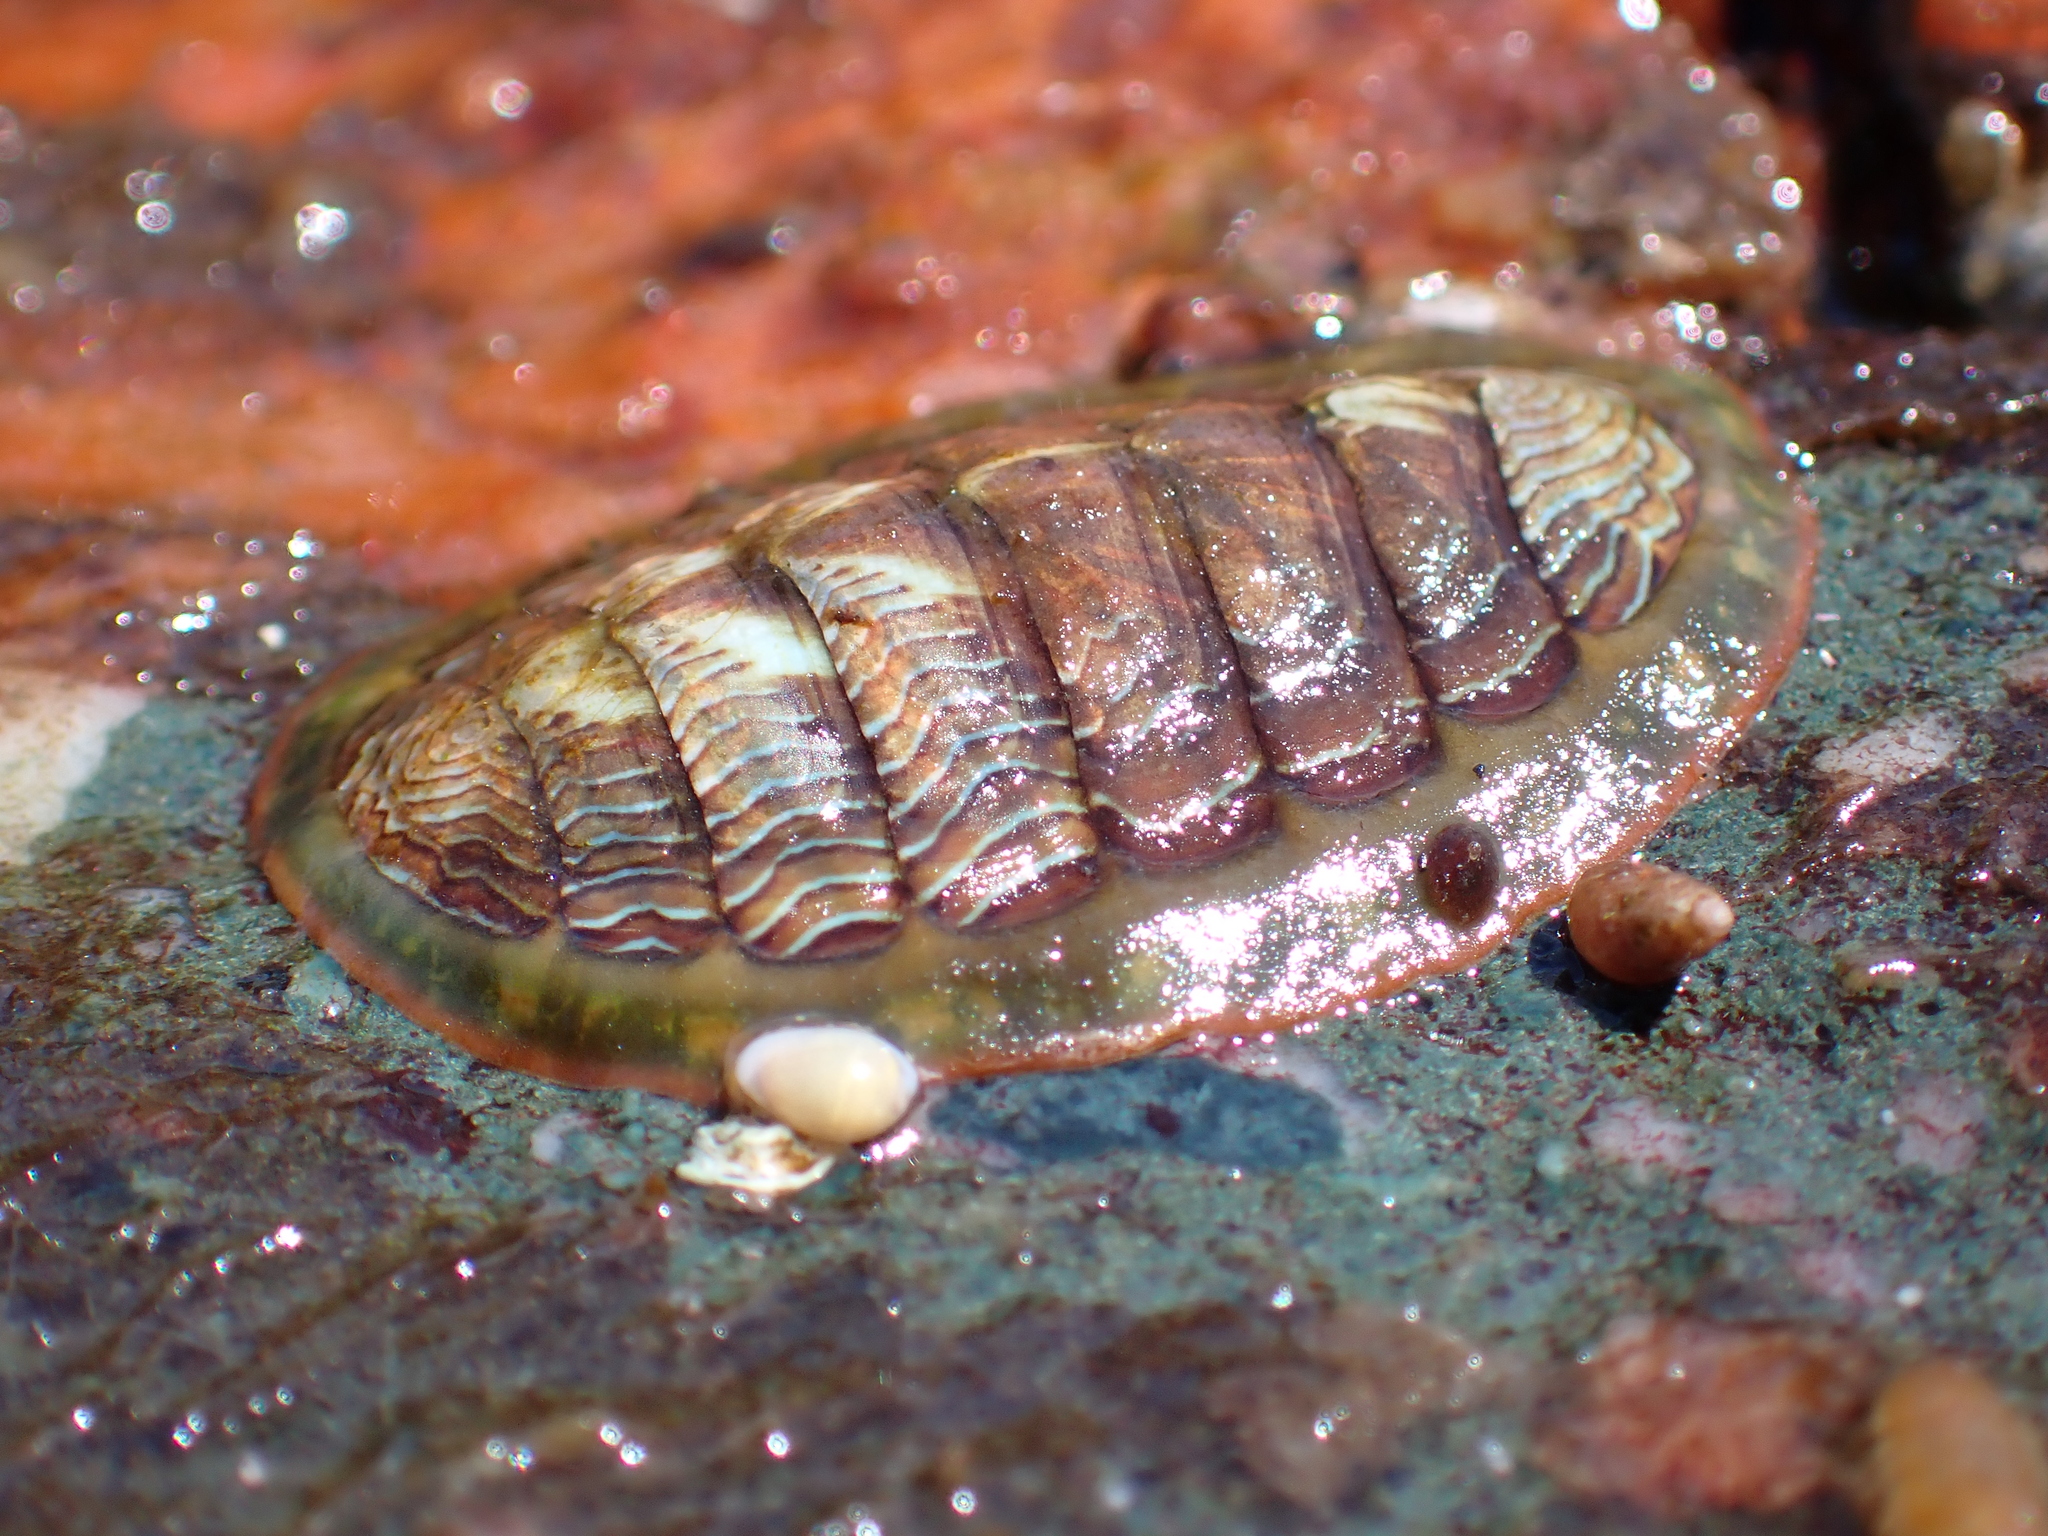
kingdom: Animalia
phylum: Mollusca
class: Polyplacophora
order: Chitonida
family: Tonicellidae
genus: Tonicella
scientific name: Tonicella lineata
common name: Lined chiton
